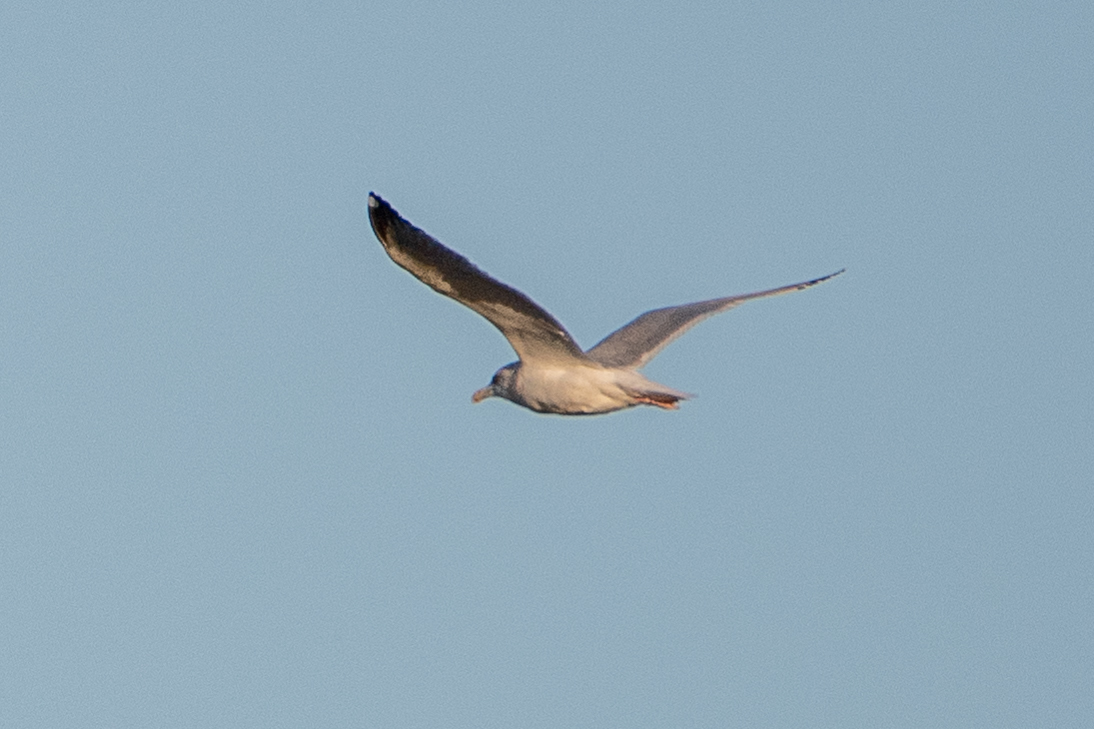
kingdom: Animalia
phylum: Chordata
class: Aves
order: Charadriiformes
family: Laridae
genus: Larus
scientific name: Larus argentatus
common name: Herring gull
